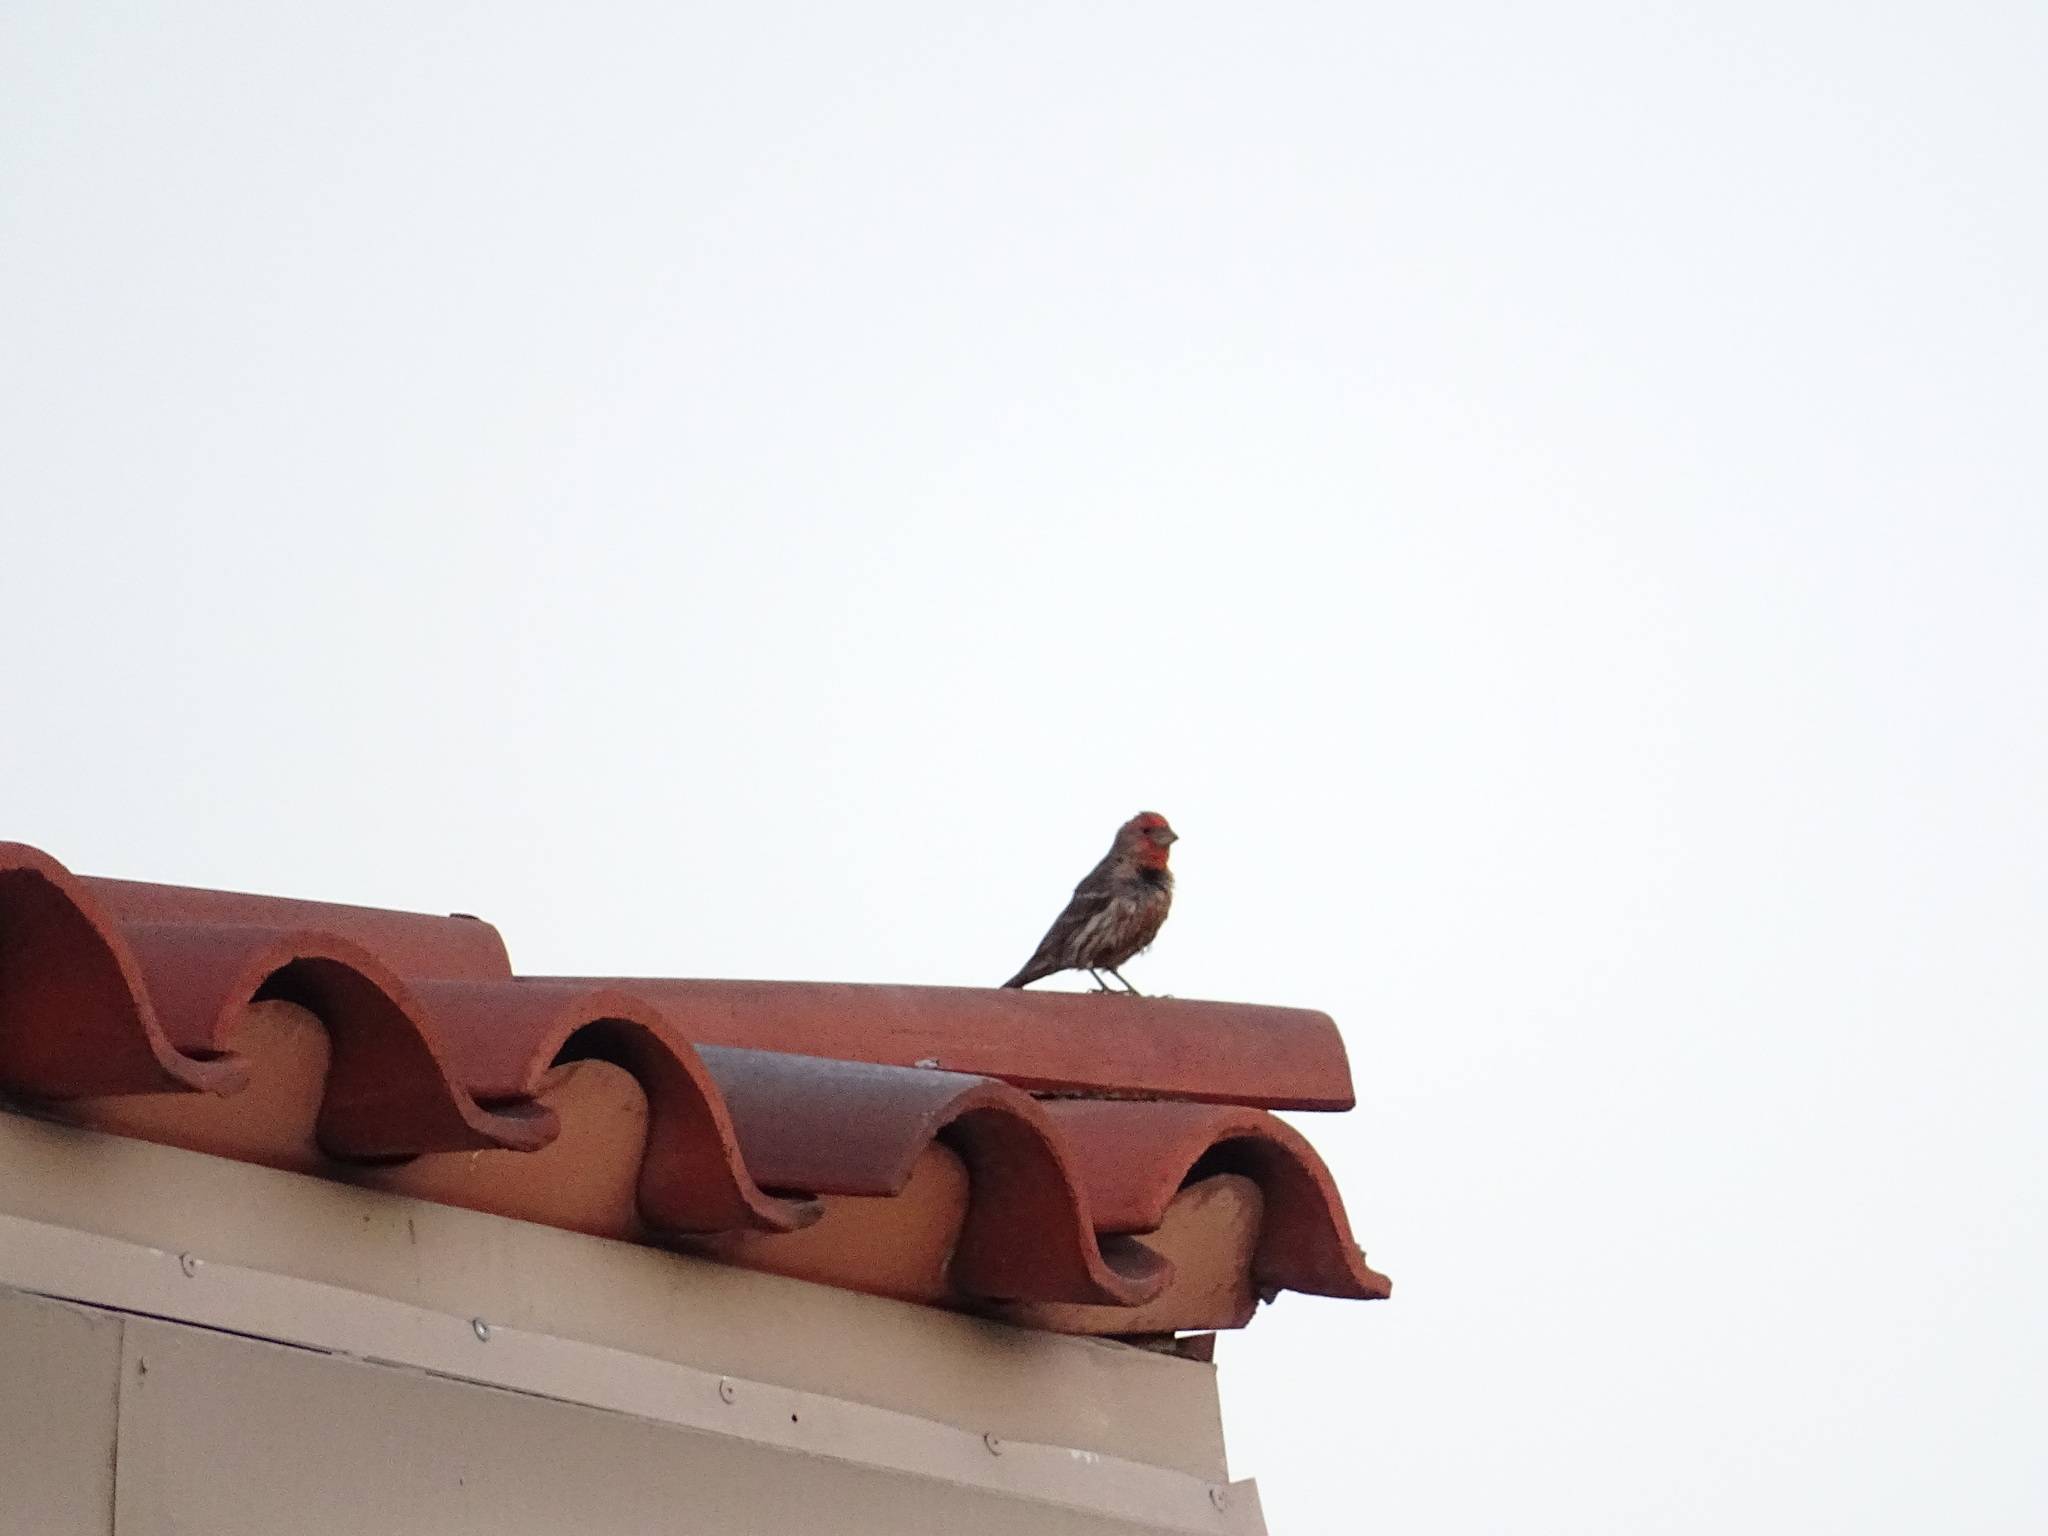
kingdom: Animalia
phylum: Chordata
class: Aves
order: Passeriformes
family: Fringillidae
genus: Haemorhous
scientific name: Haemorhous mexicanus
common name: House finch
